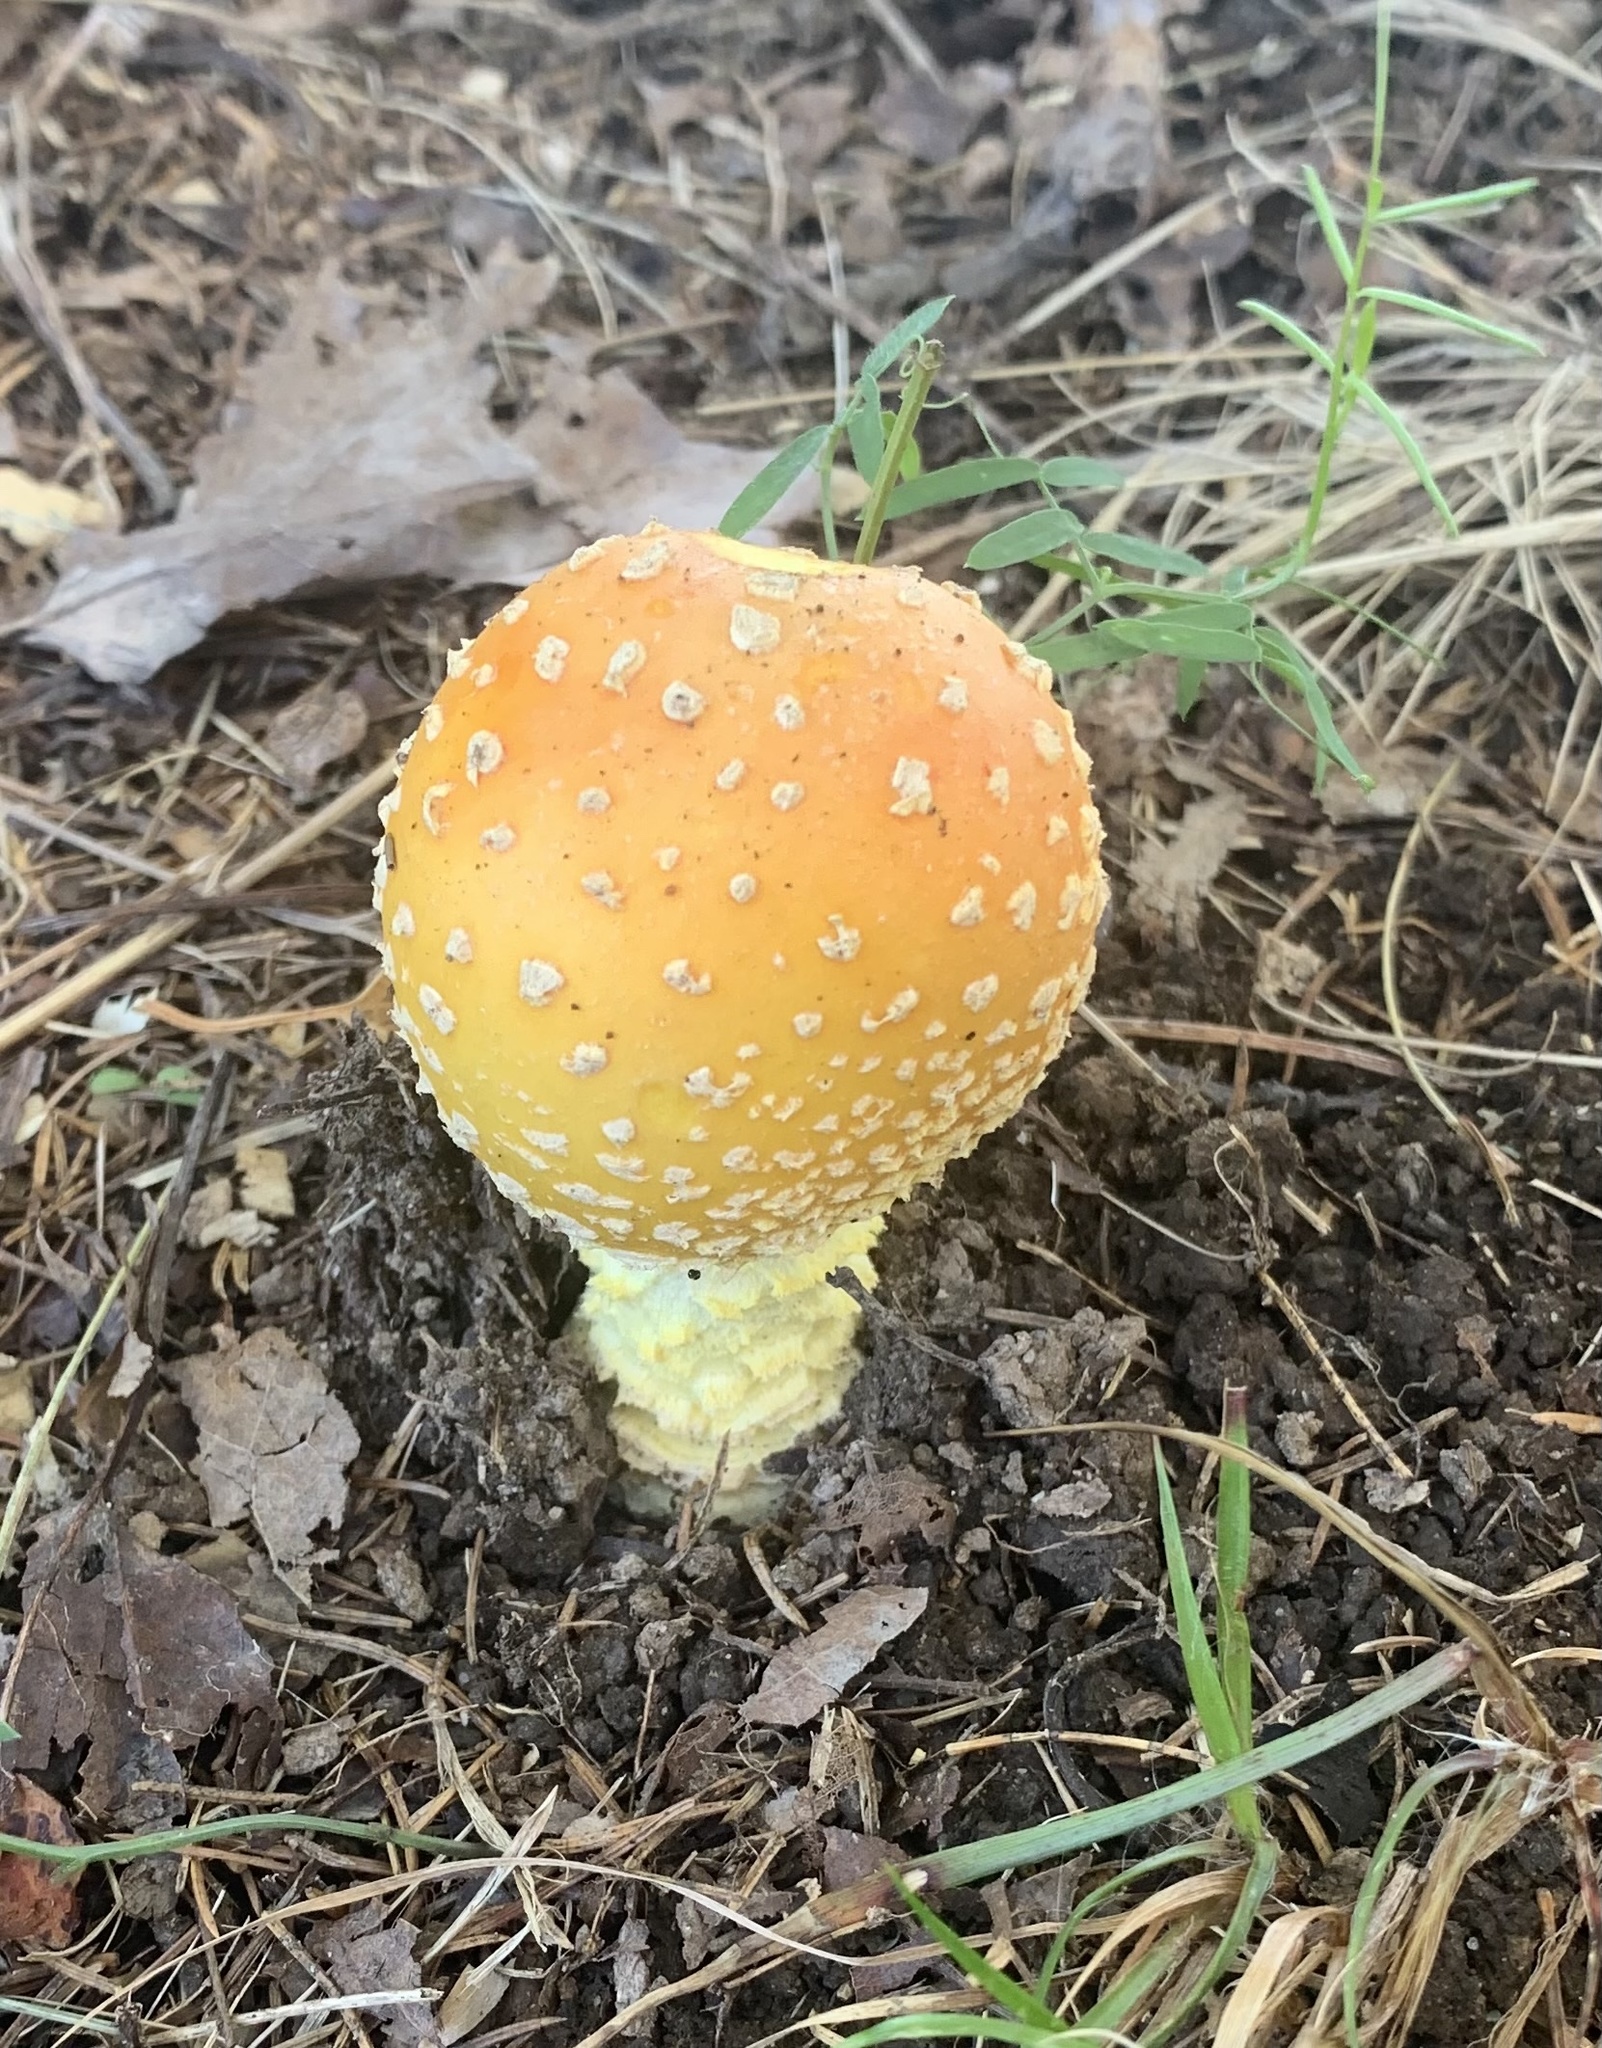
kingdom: Fungi
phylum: Basidiomycota
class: Agaricomycetes
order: Agaricales
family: Amanitaceae
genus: Amanita
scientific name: Amanita muscaria
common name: Fly agaric
